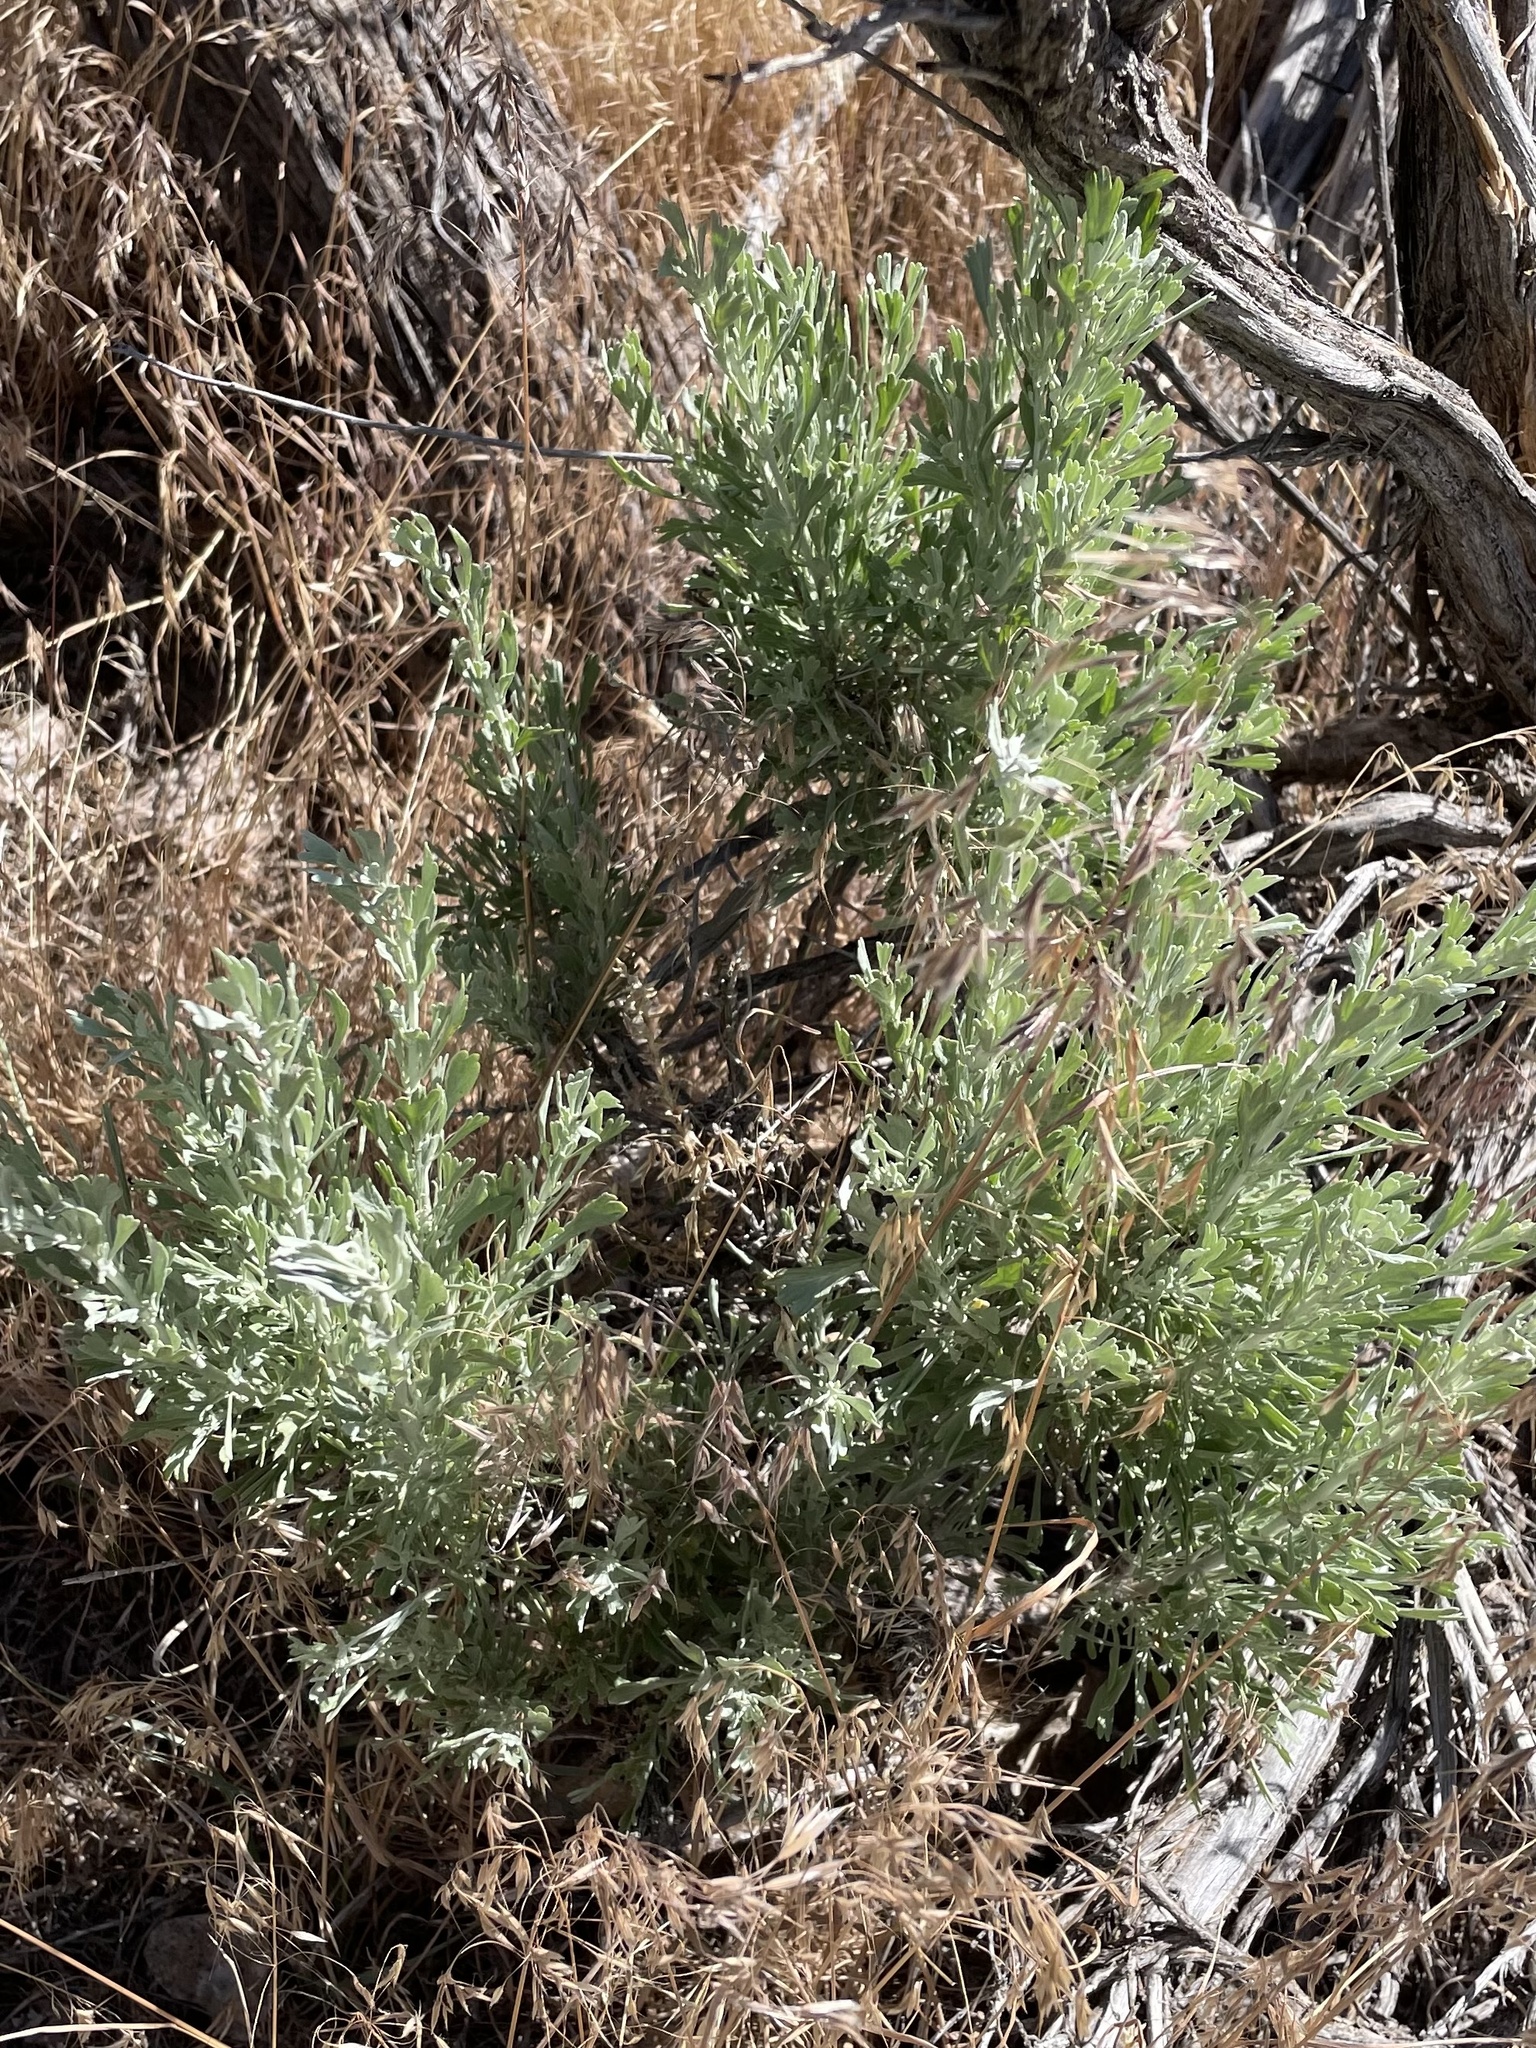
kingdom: Plantae
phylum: Tracheophyta
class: Magnoliopsida
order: Asterales
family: Asteraceae
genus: Artemisia
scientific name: Artemisia tridentata
